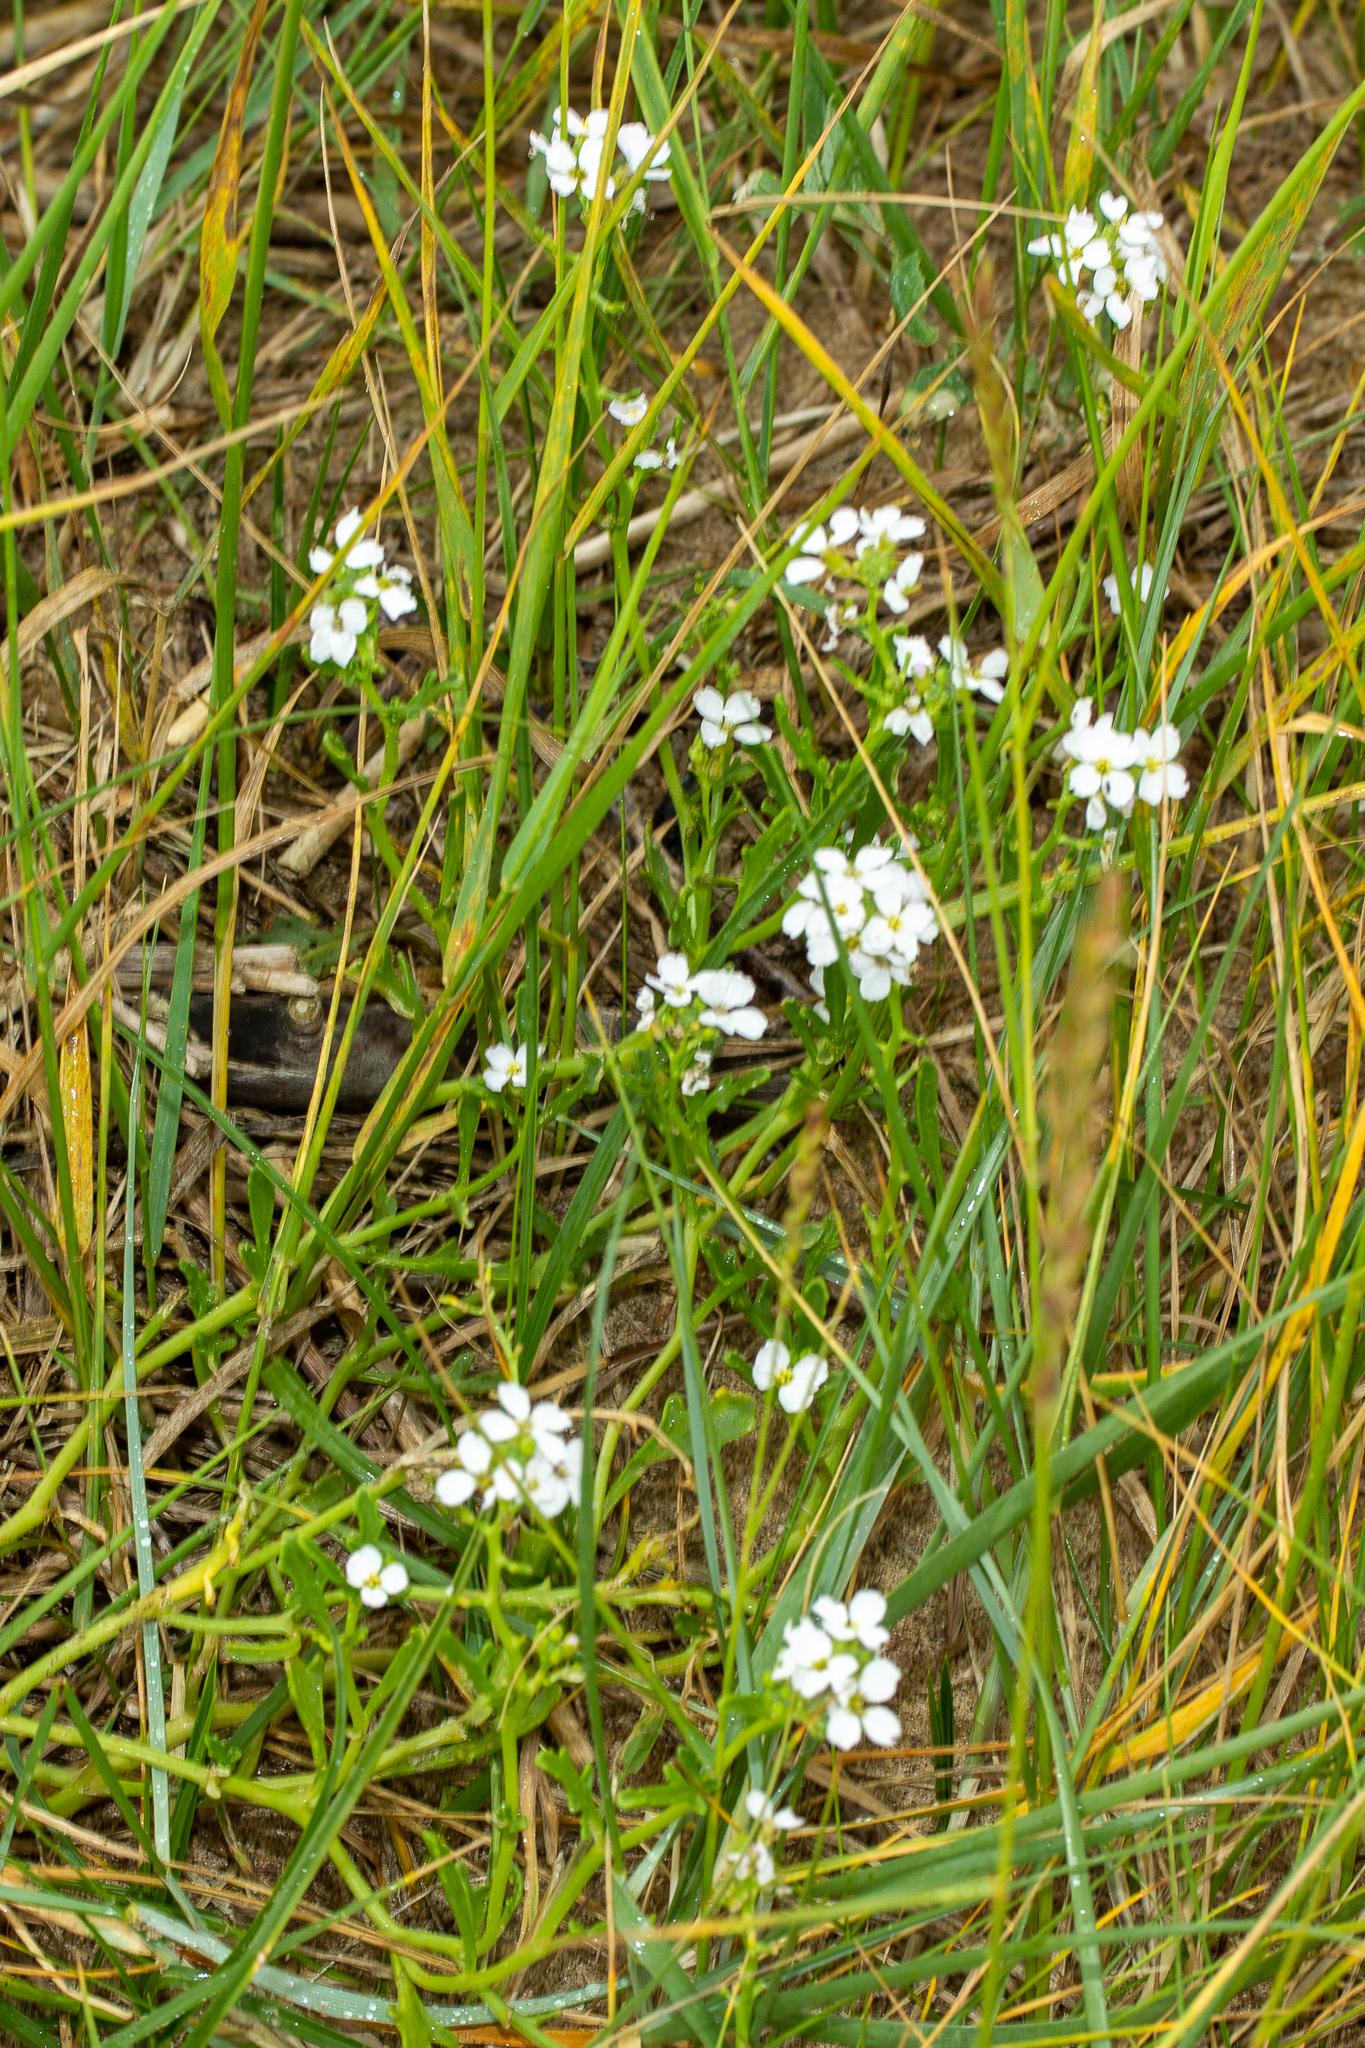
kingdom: Plantae
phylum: Tracheophyta
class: Magnoliopsida
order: Brassicales
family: Brassicaceae
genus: Cakile
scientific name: Cakile maritima
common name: Sea rocket
